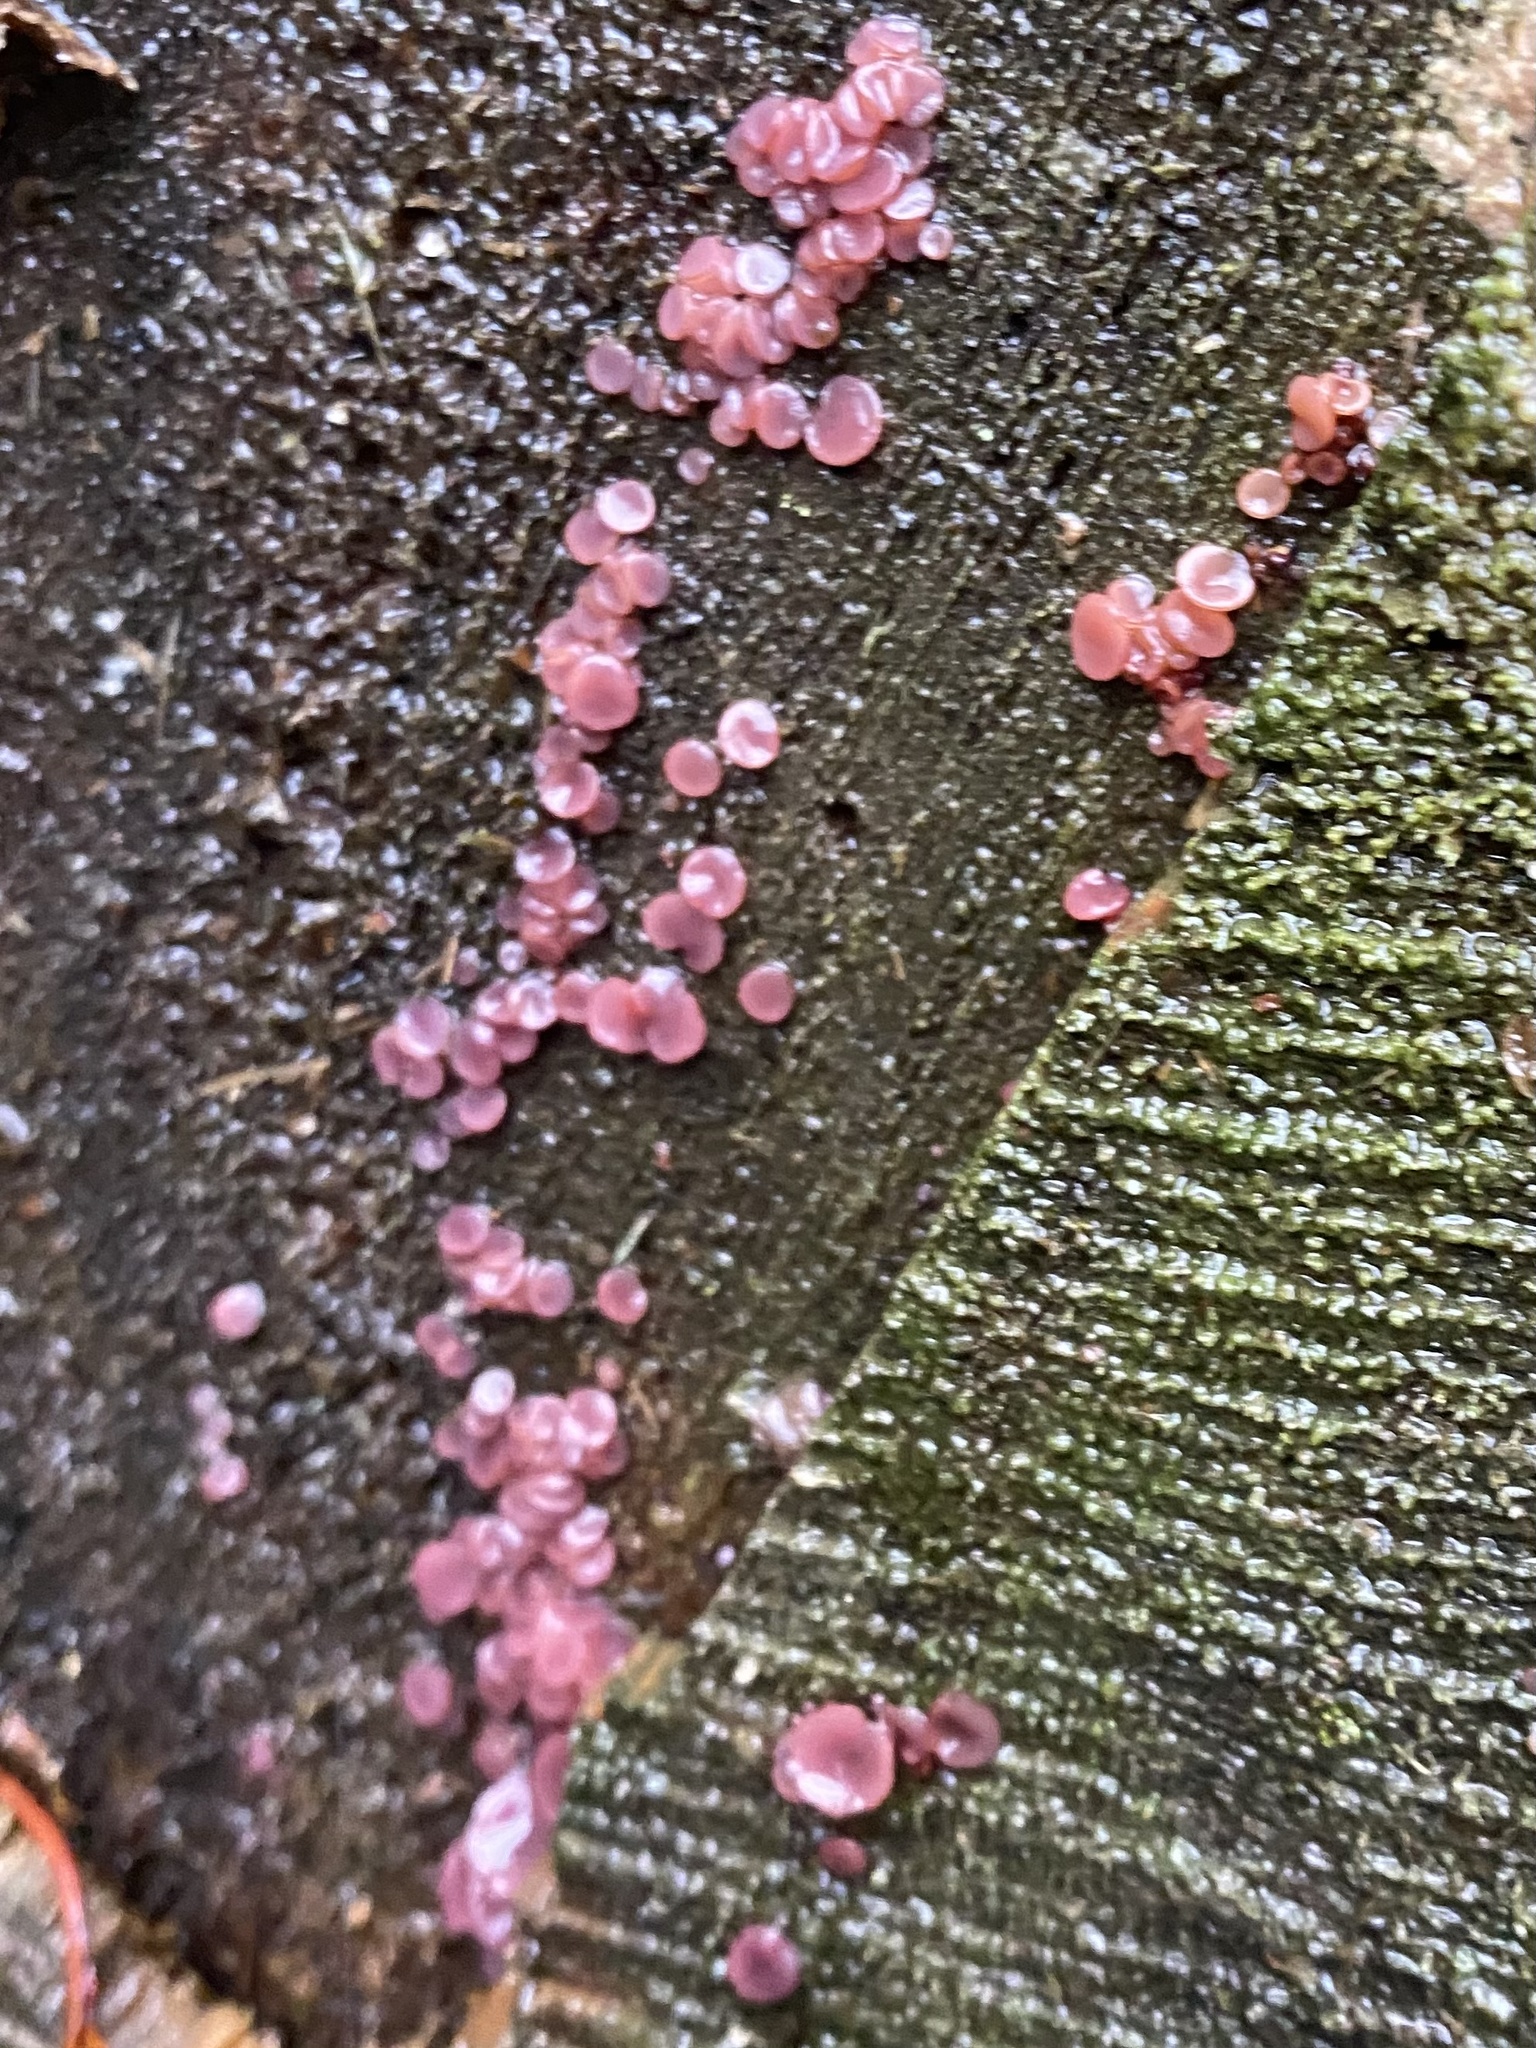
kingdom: Fungi
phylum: Ascomycota
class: Leotiomycetes
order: Helotiales
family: Gelatinodiscaceae
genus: Ascocoryne
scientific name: Ascocoryne sarcoides
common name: Purple jellydisc
